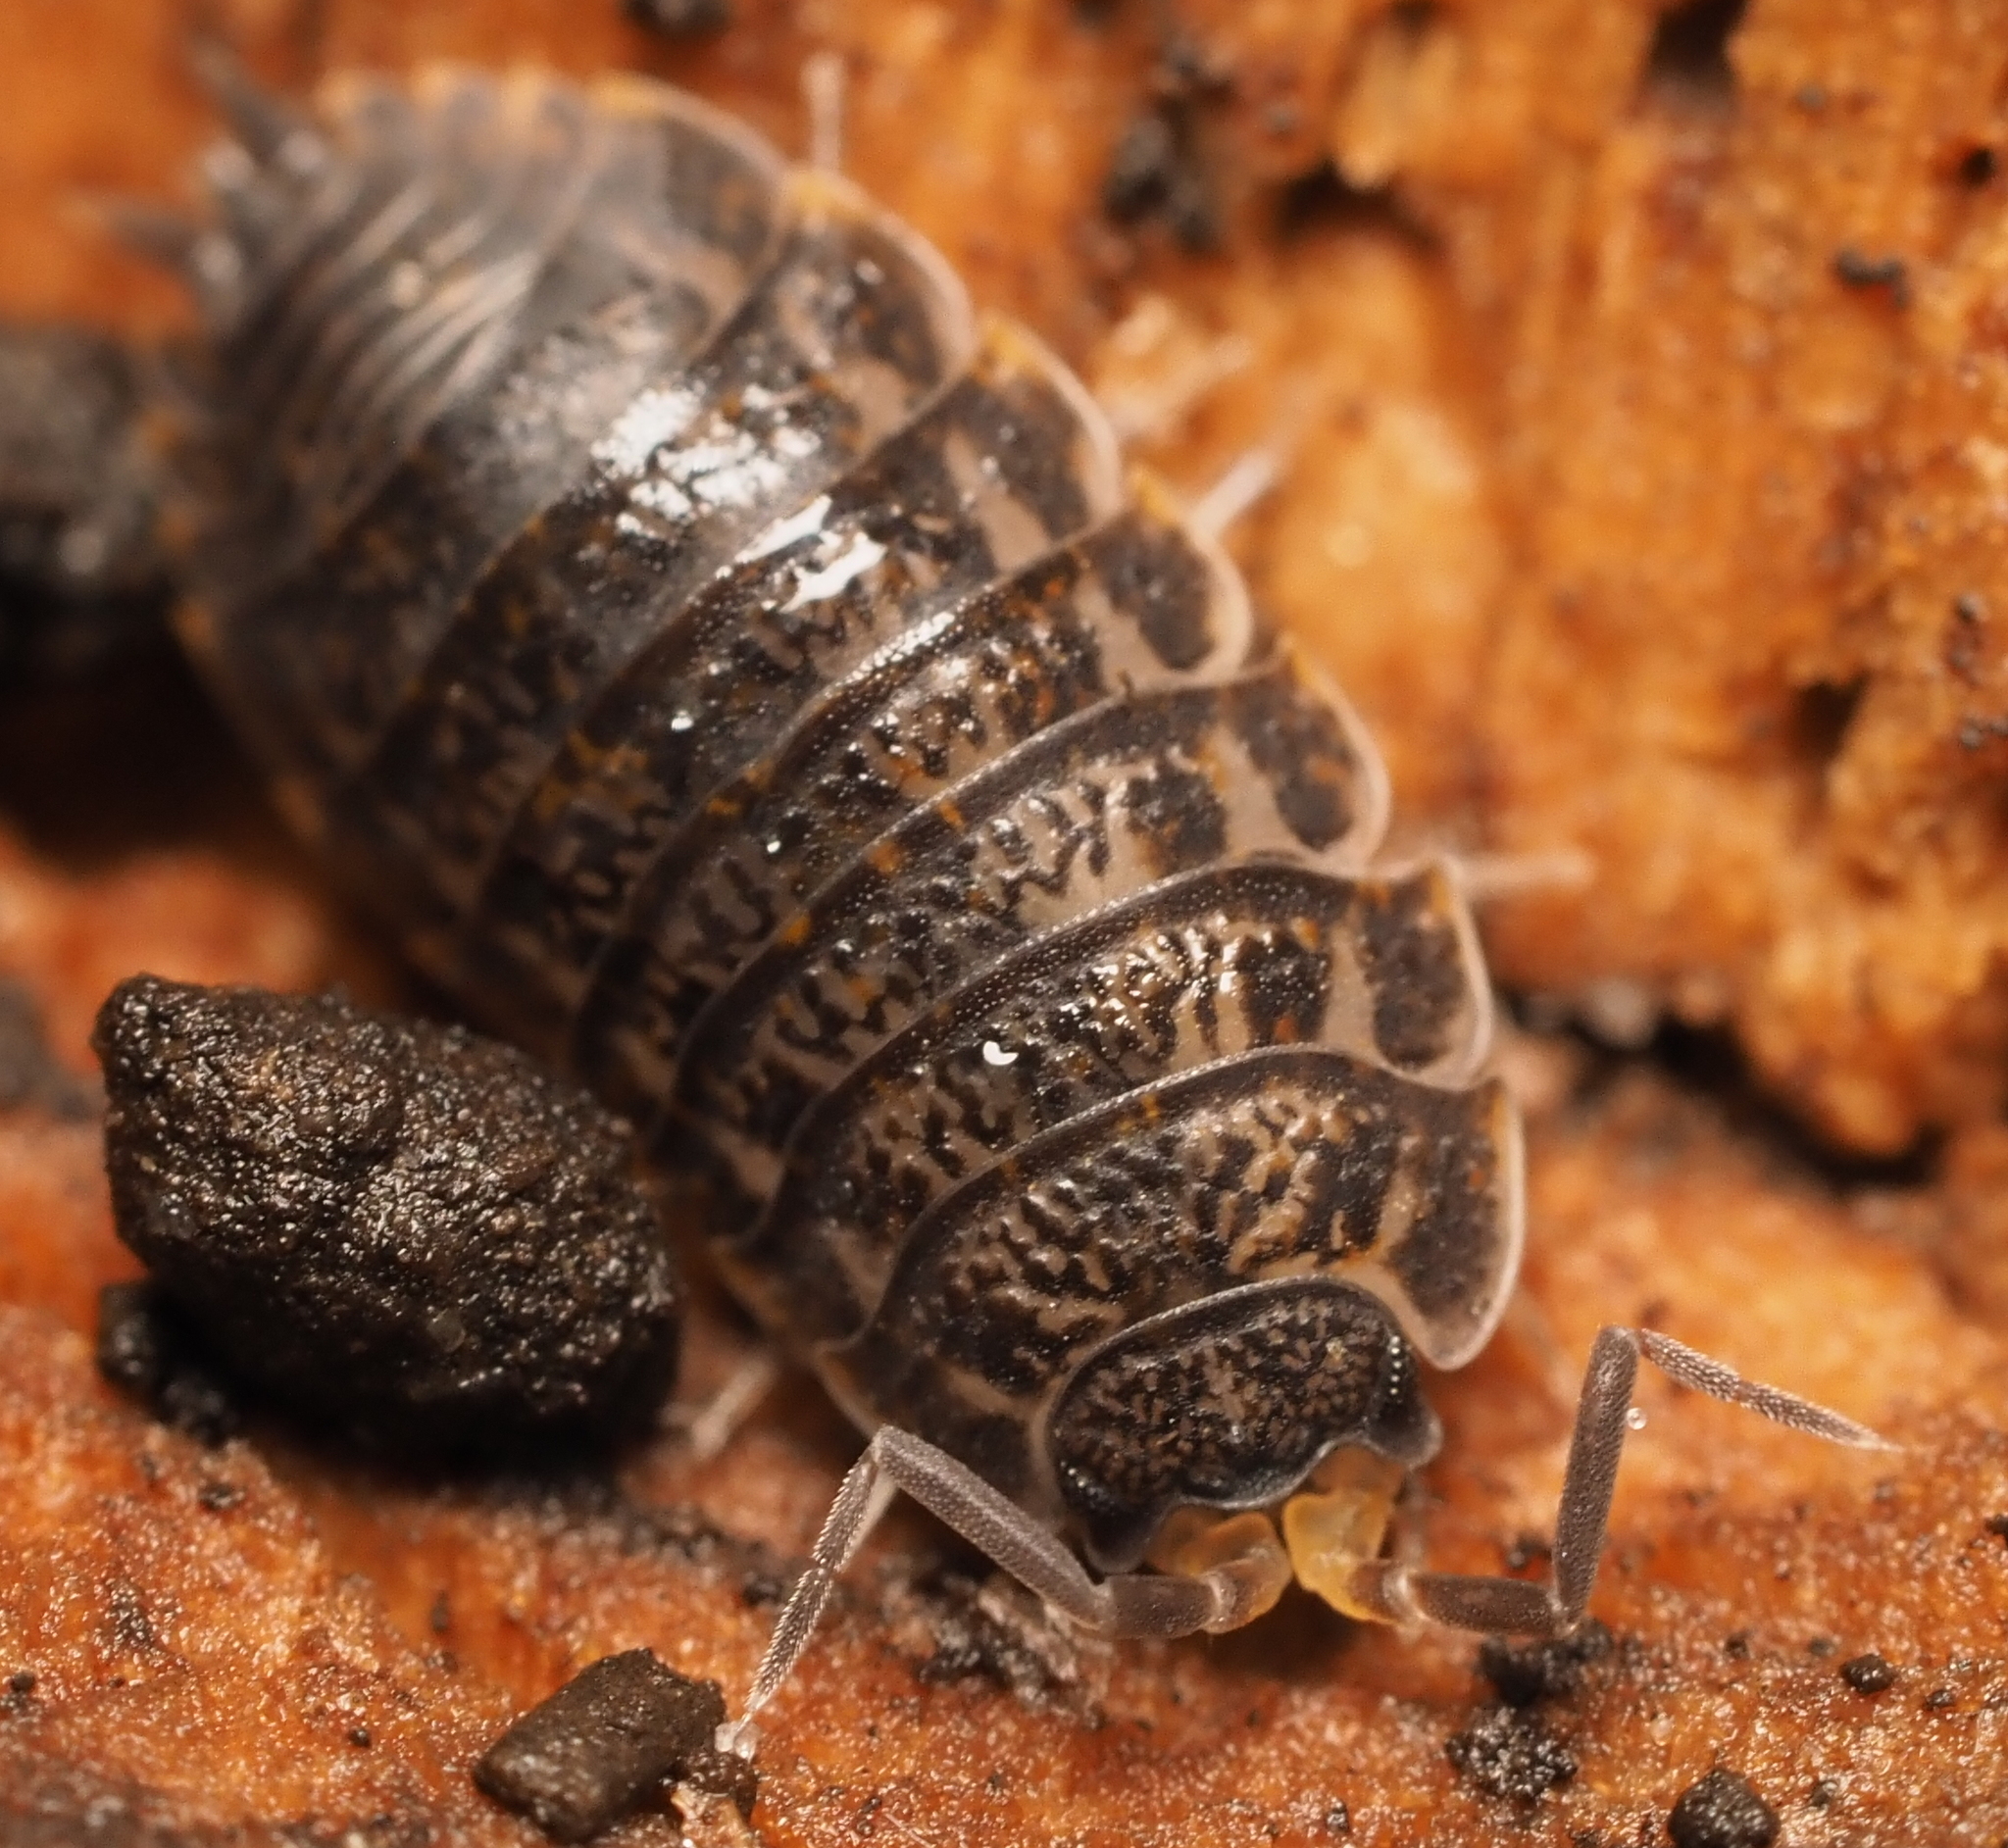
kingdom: Animalia
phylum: Arthropoda
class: Malacostraca
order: Isopoda
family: Trachelipodidae
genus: Trachelipus
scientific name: Trachelipus rathkii
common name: Isopod
